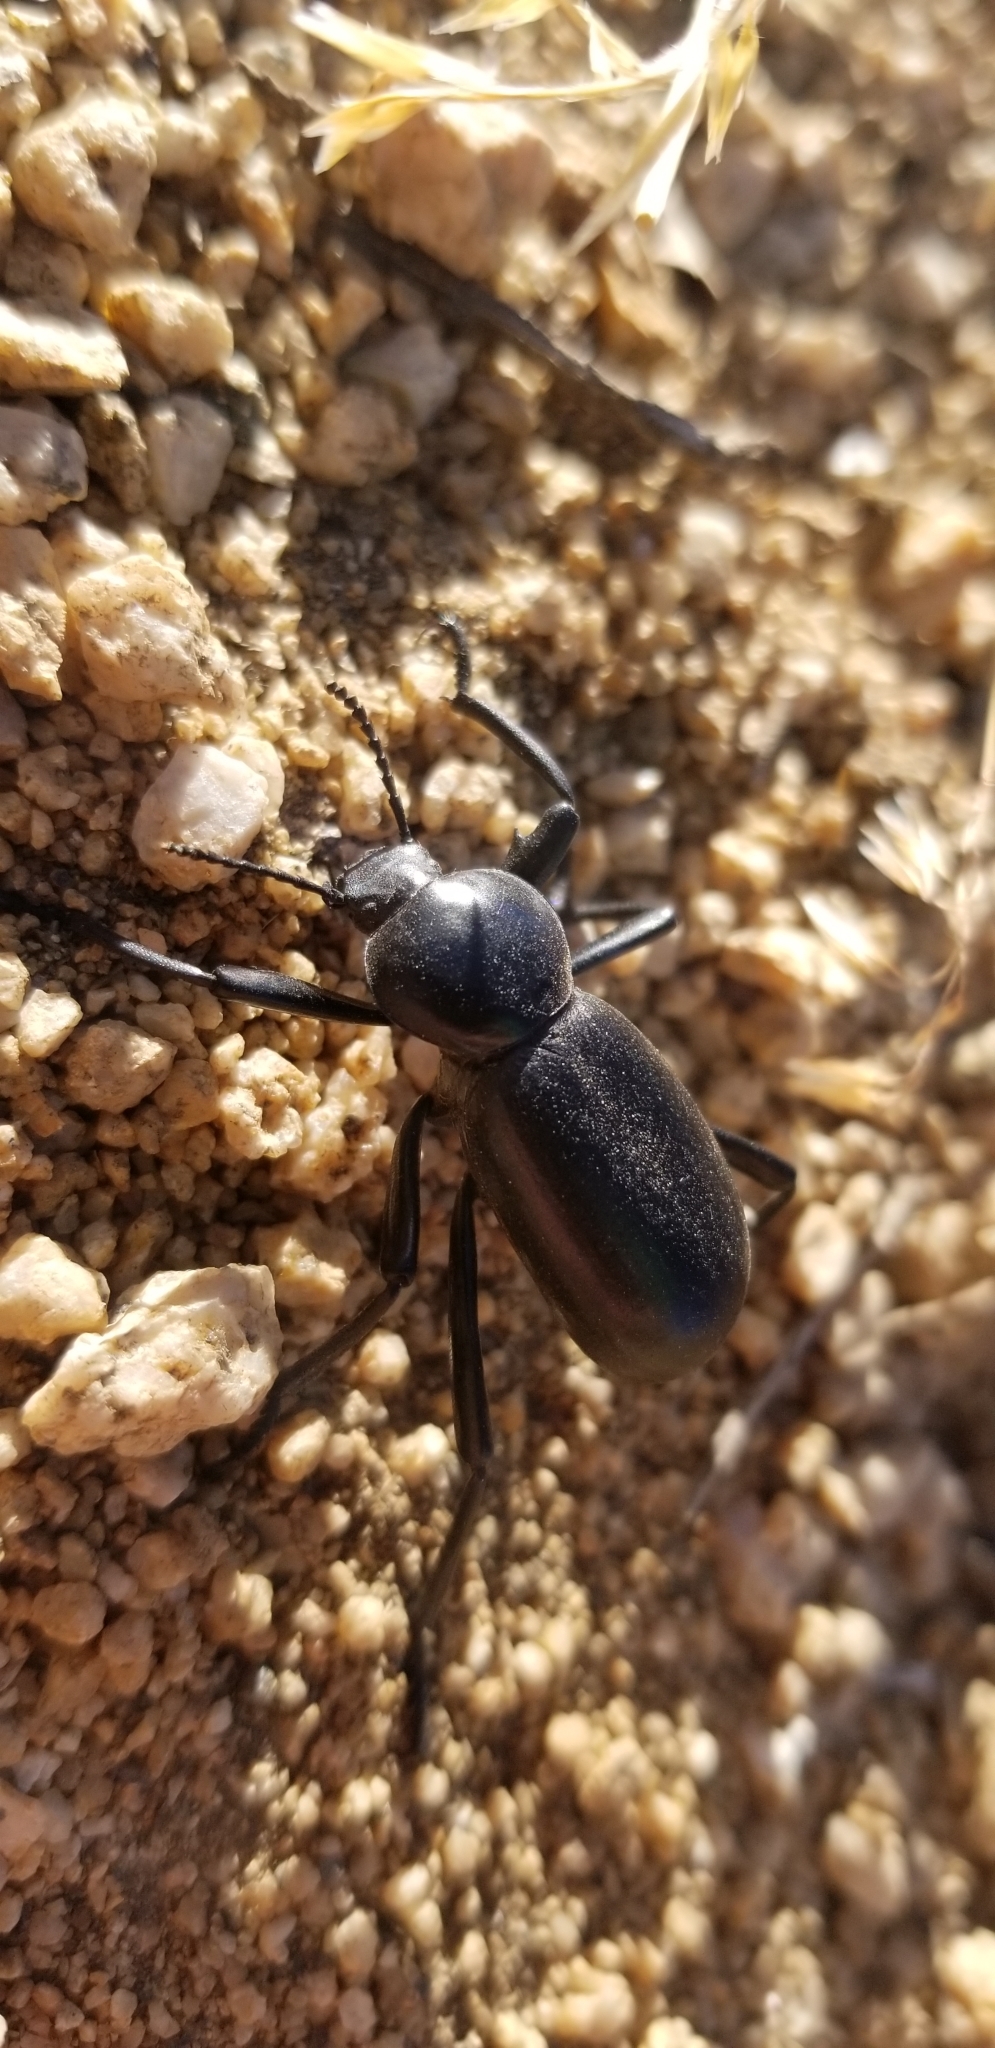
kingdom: Animalia
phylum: Arthropoda
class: Insecta
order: Coleoptera
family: Tenebrionidae
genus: Eleodes
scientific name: Eleodes grandicollis
